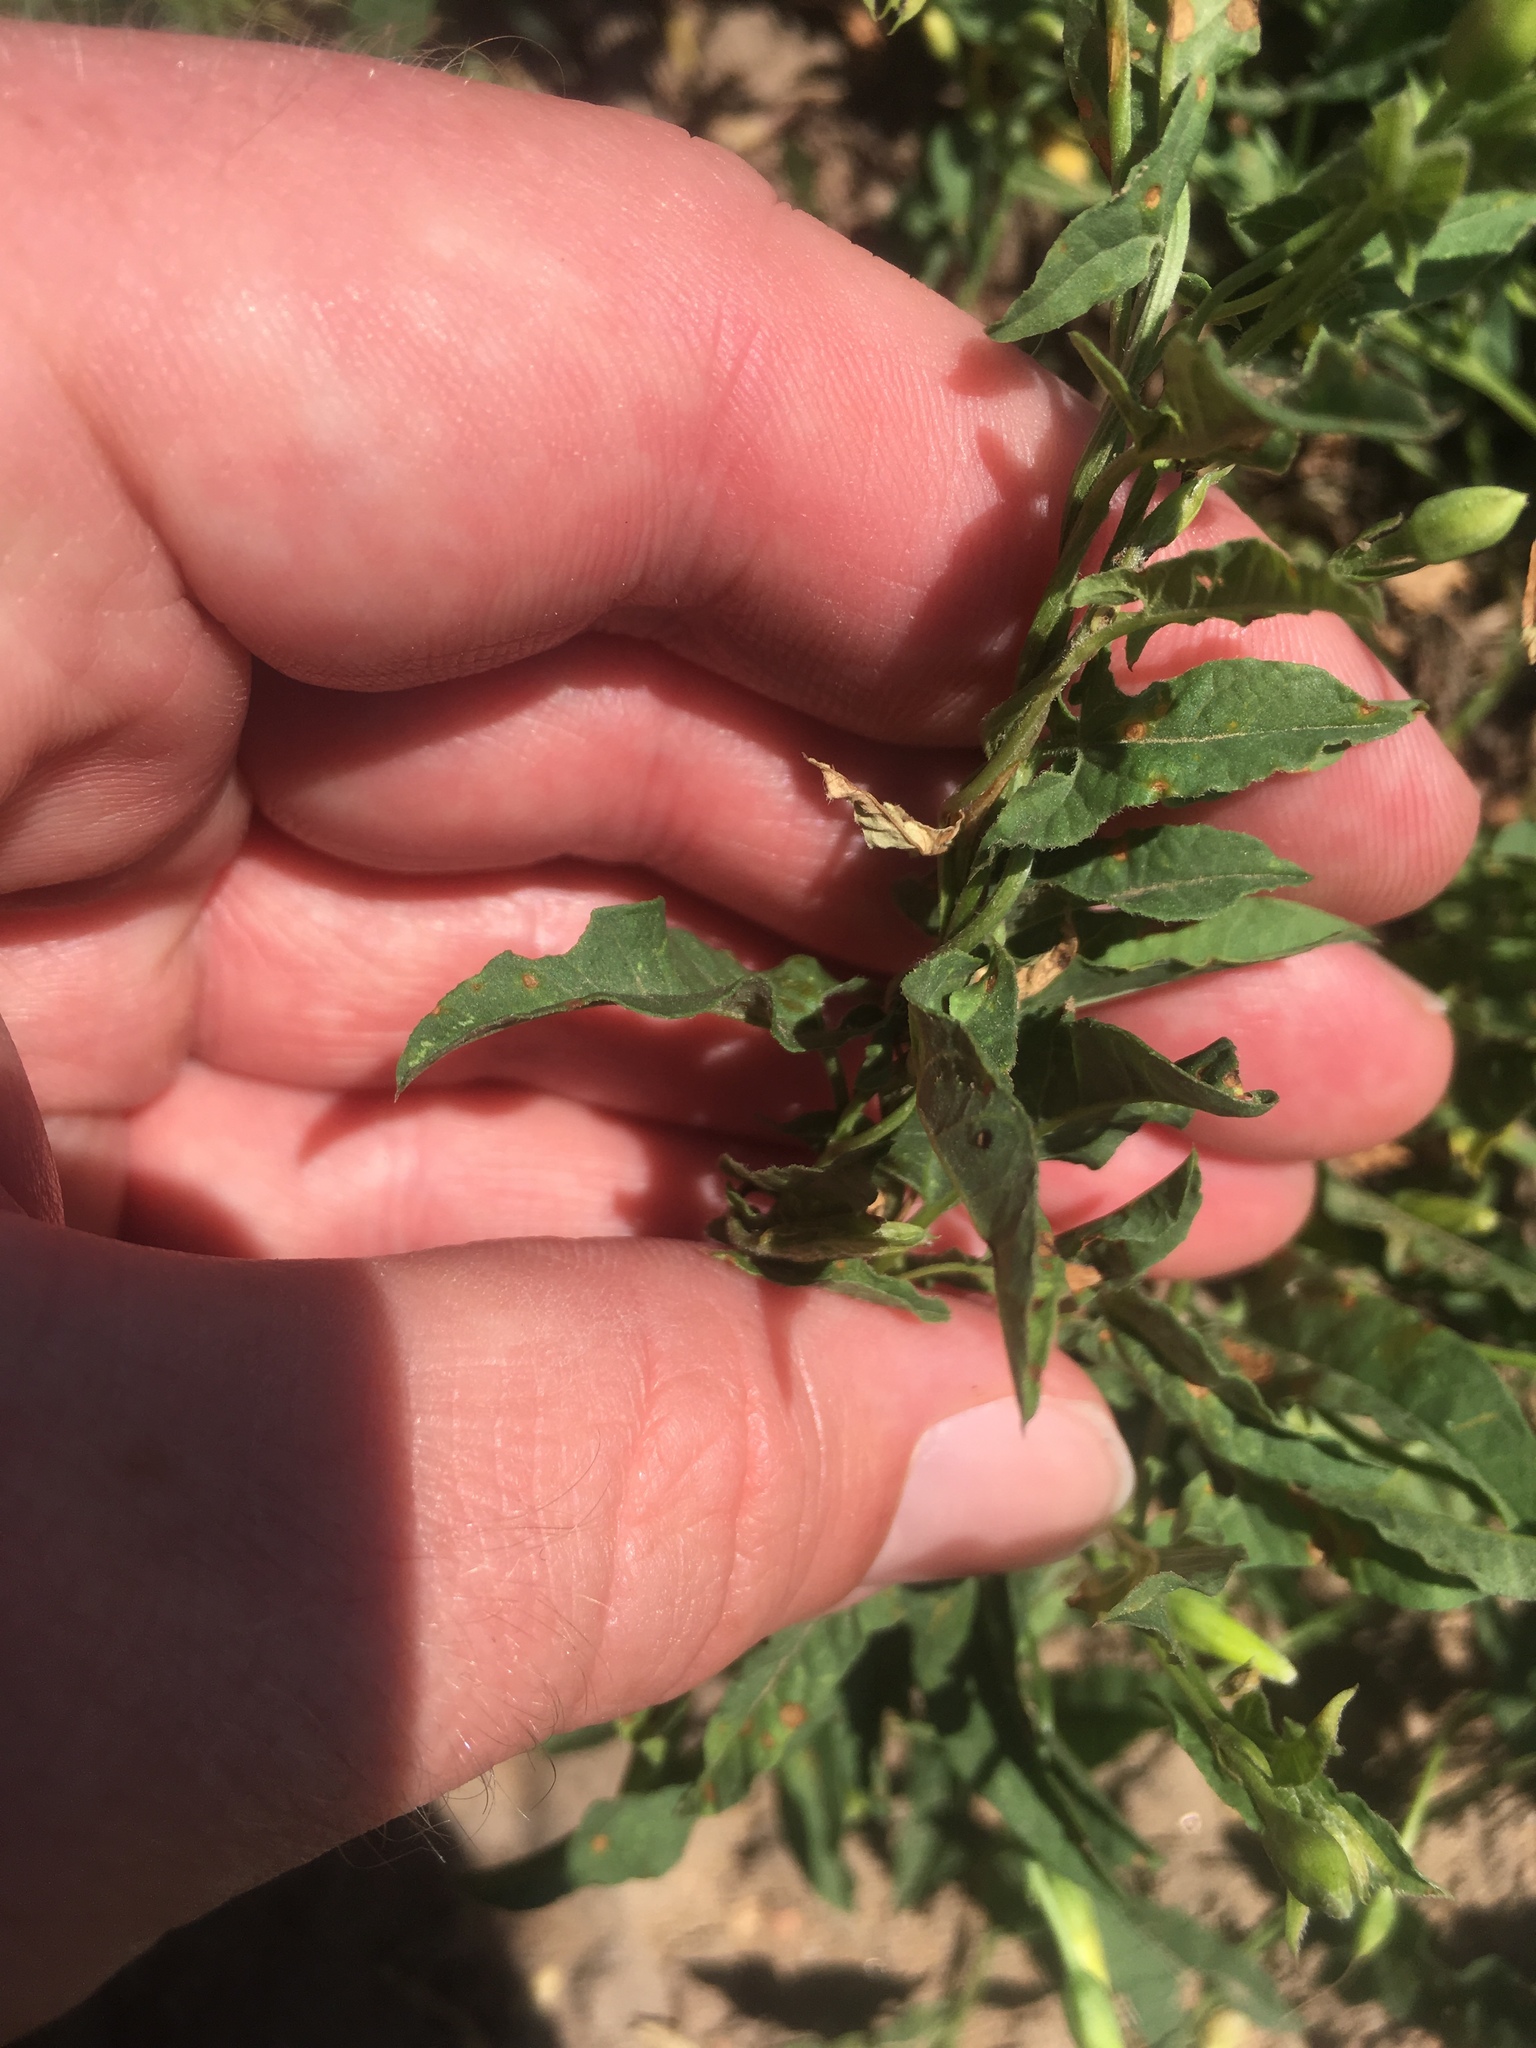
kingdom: Plantae
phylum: Tracheophyta
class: Magnoliopsida
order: Solanales
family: Convolvulaceae
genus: Convolvulus
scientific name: Convolvulus arvensis
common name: Field bindweed
